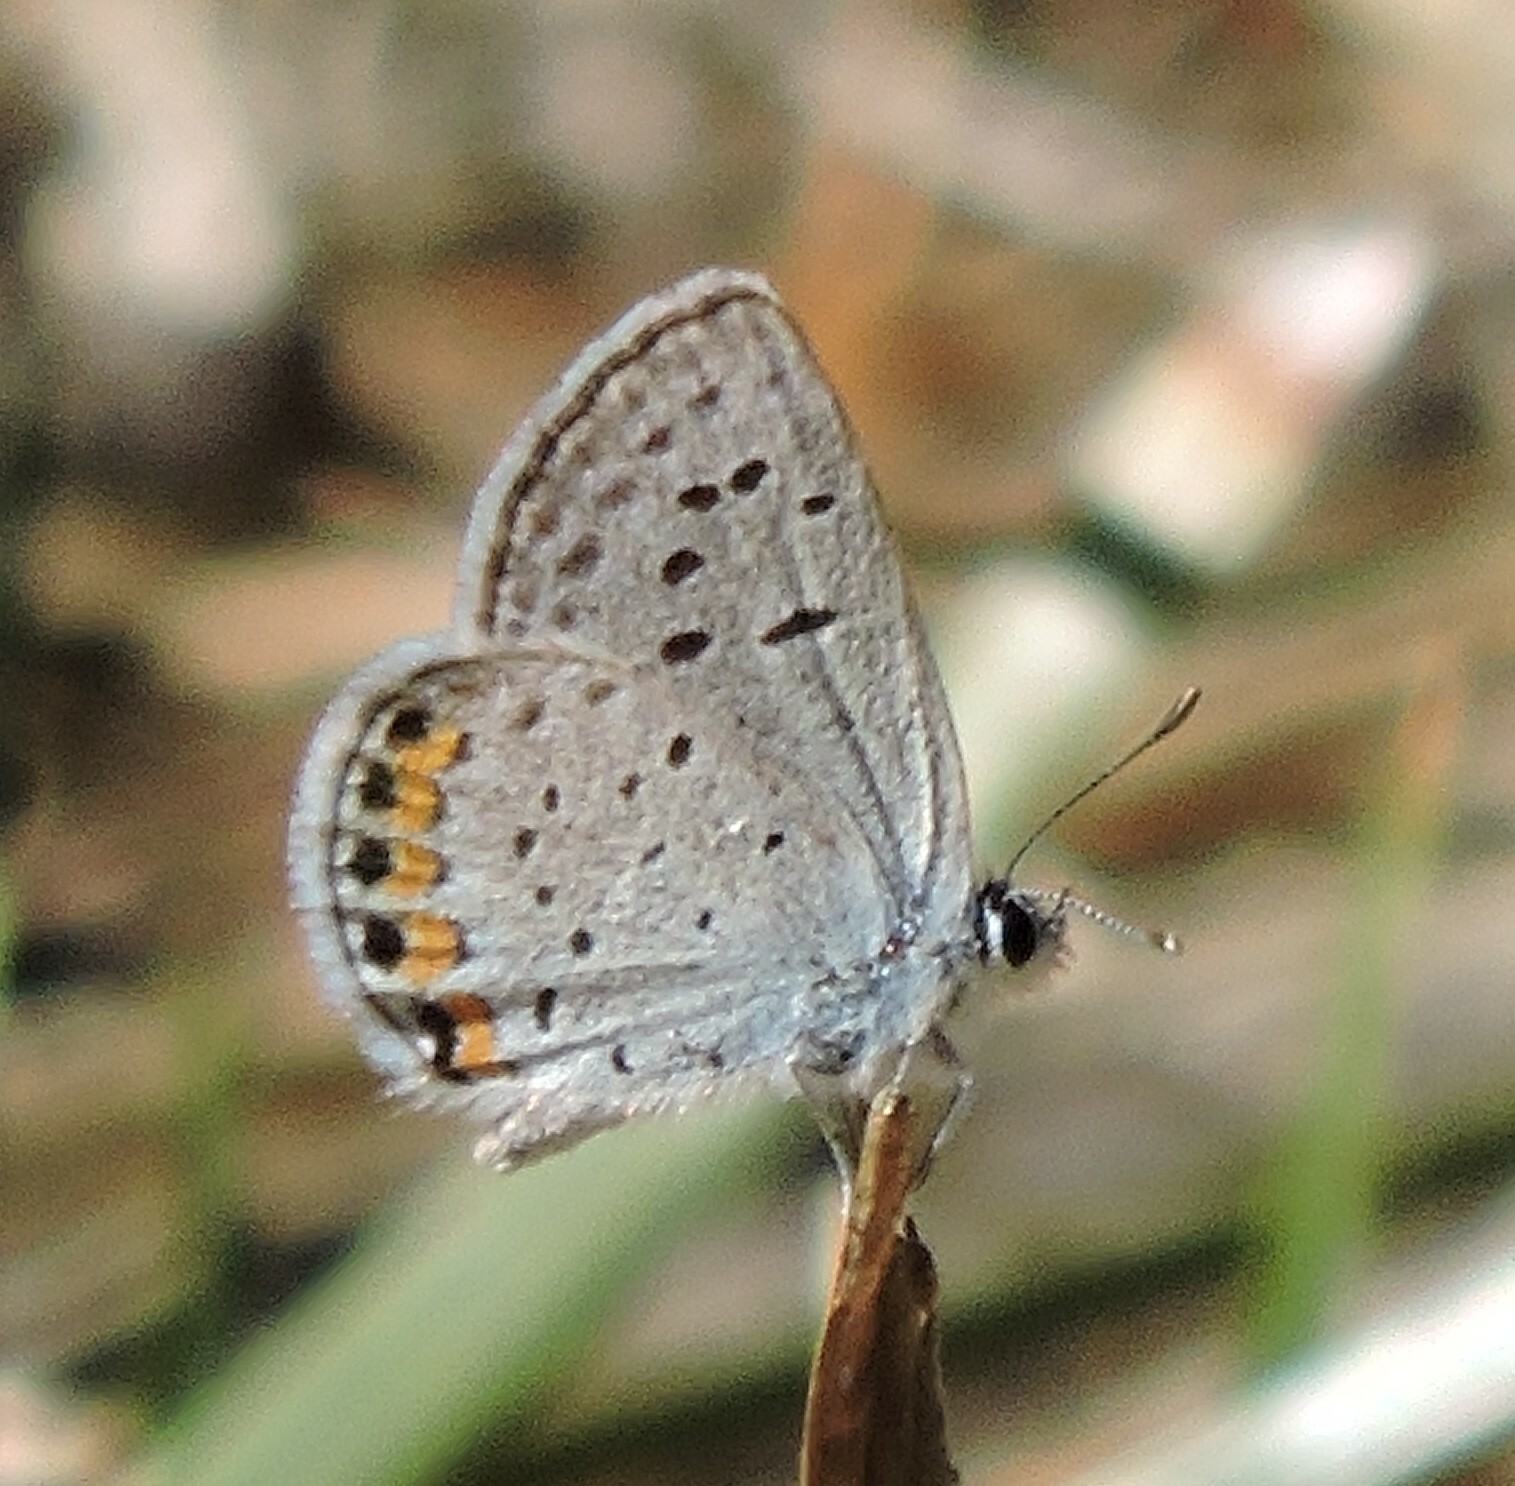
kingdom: Animalia
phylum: Arthropoda
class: Insecta
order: Lepidoptera
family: Lycaenidae
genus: Icaricia
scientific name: Icaricia acmon
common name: Acmon blue
